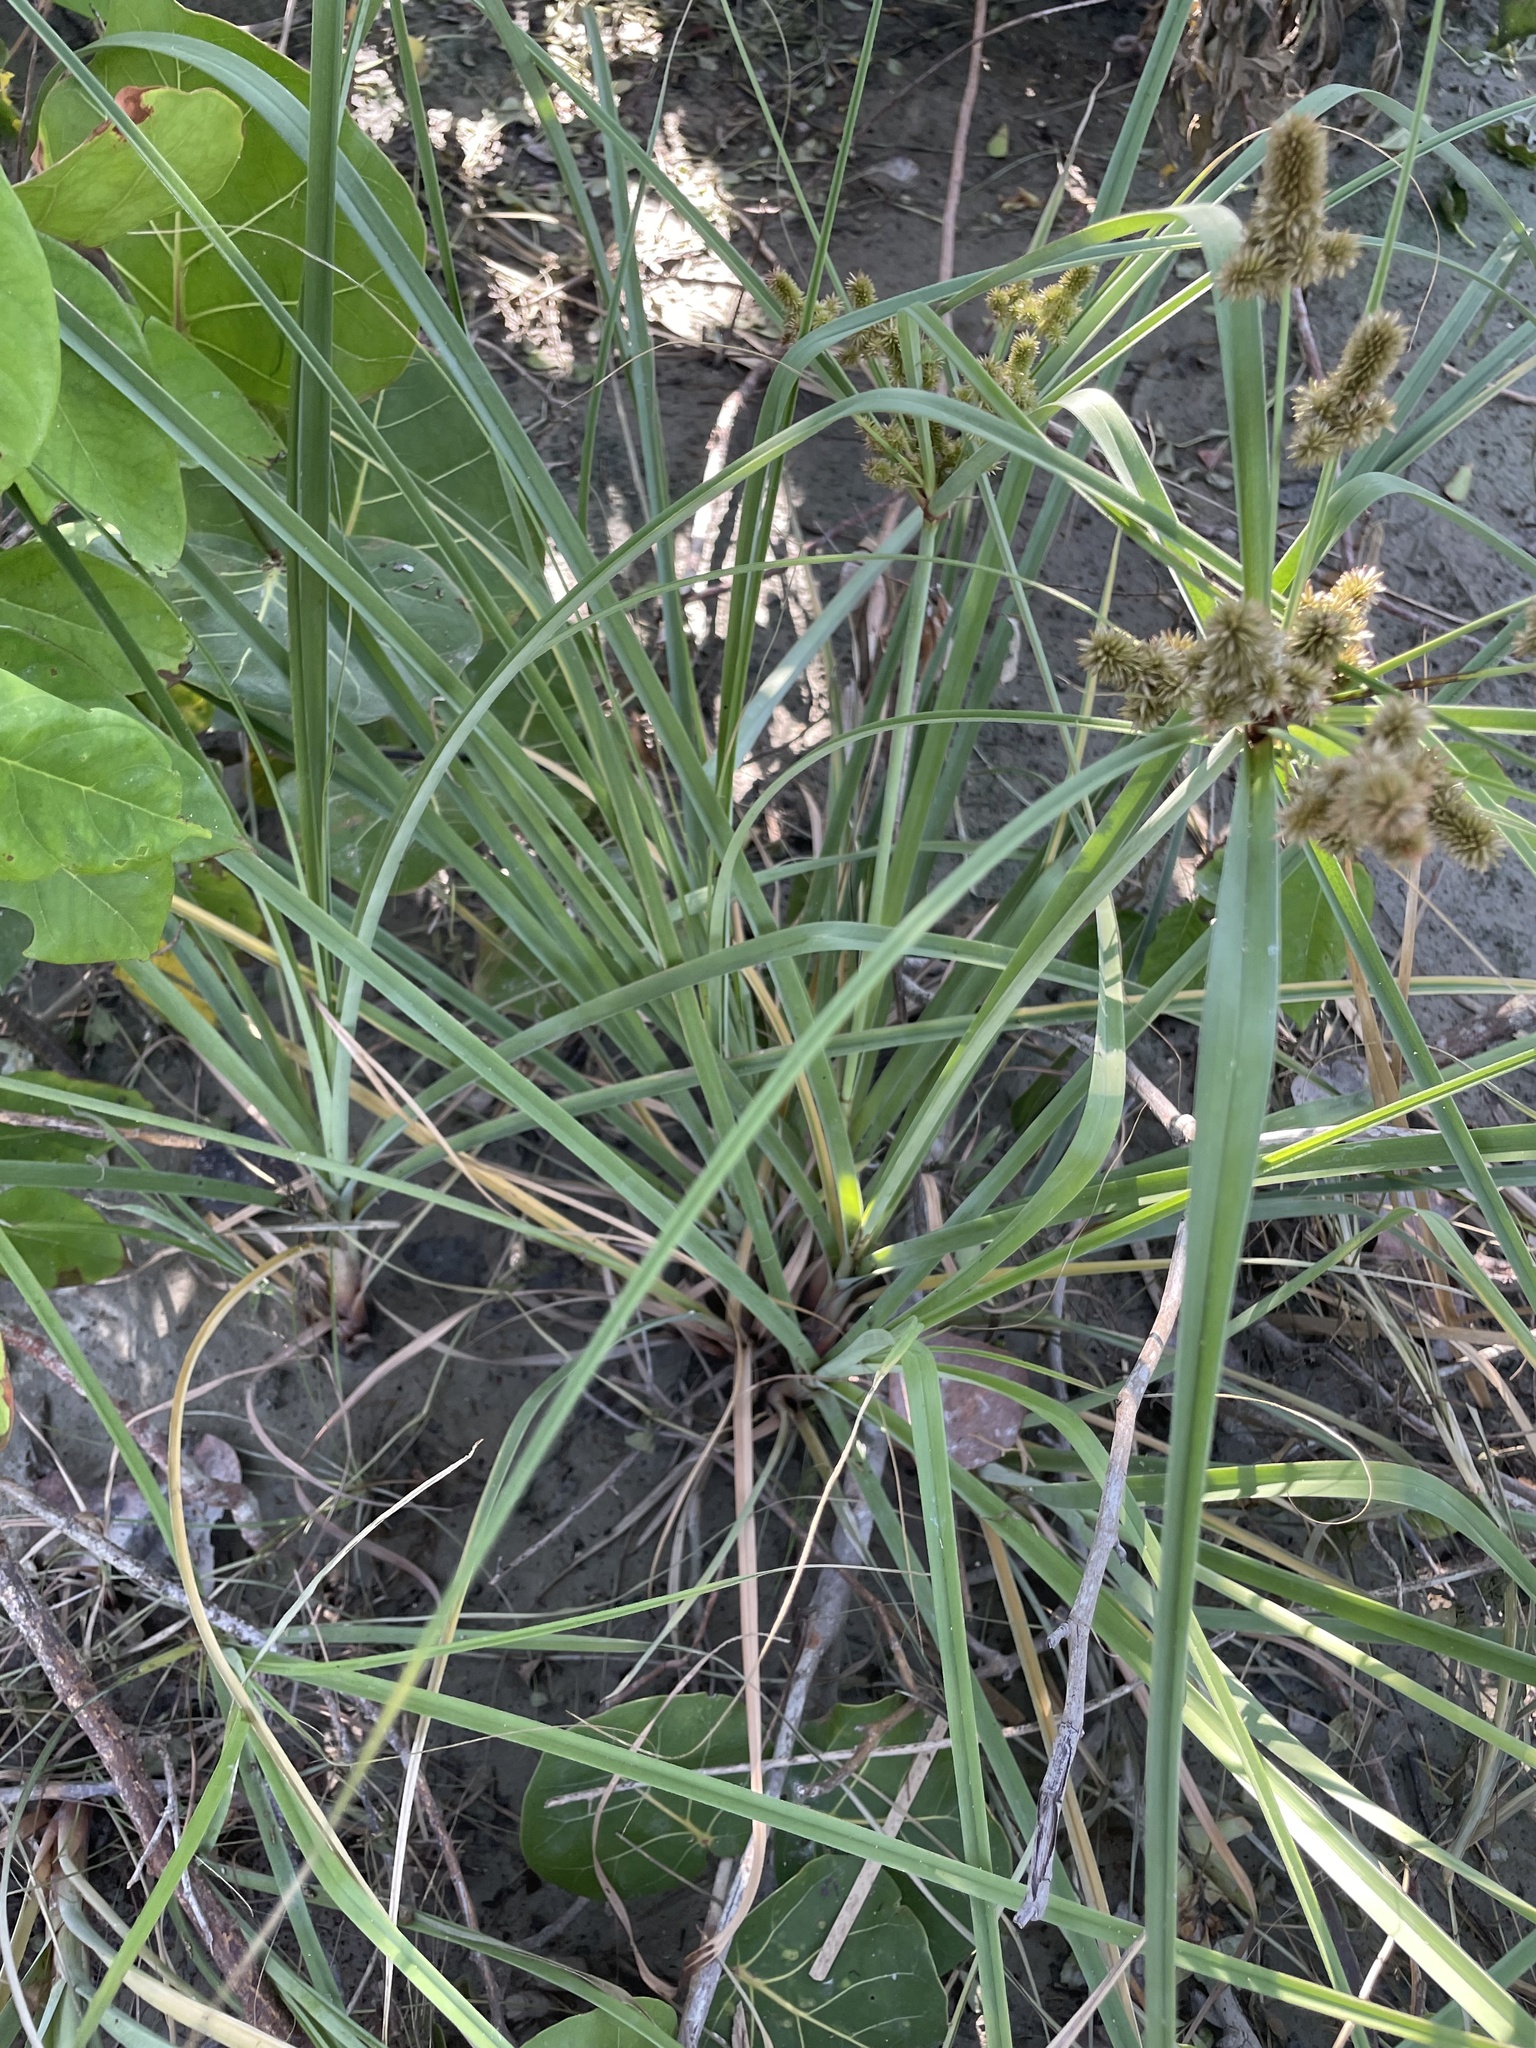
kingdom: Plantae
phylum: Tracheophyta
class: Liliopsida
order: Poales
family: Cyperaceae
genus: Cyperus
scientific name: Cyperus ligularis
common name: Swamp flat sedge
